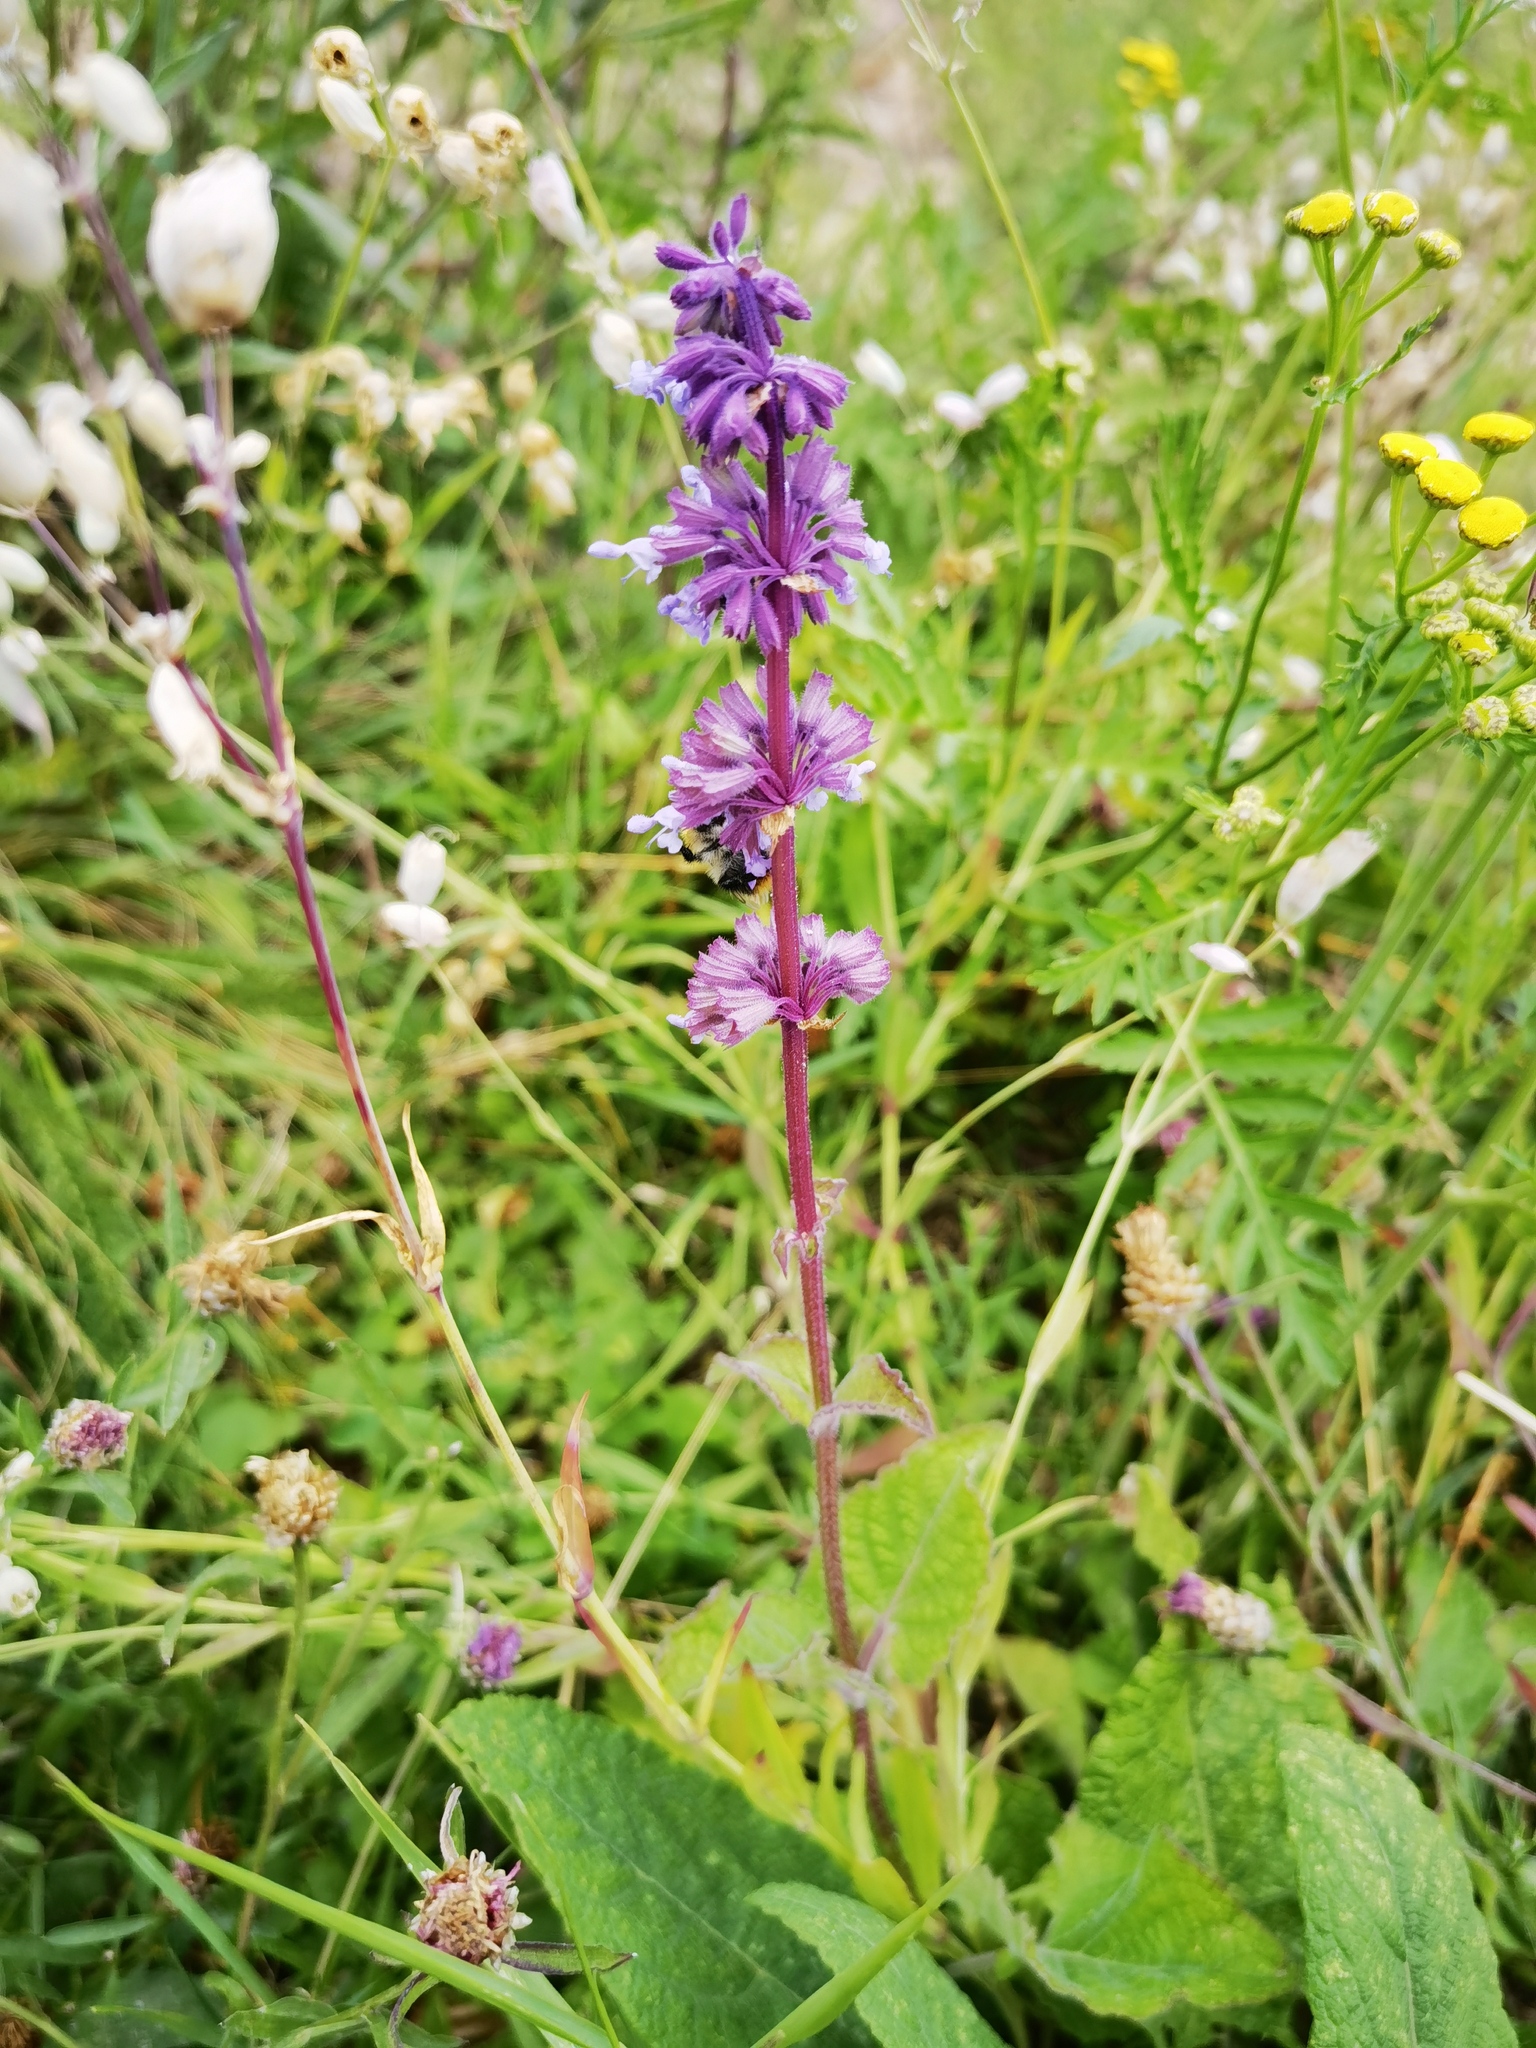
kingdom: Plantae
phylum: Tracheophyta
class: Magnoliopsida
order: Lamiales
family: Lamiaceae
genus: Salvia
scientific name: Salvia verticillata
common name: Whorled clary
